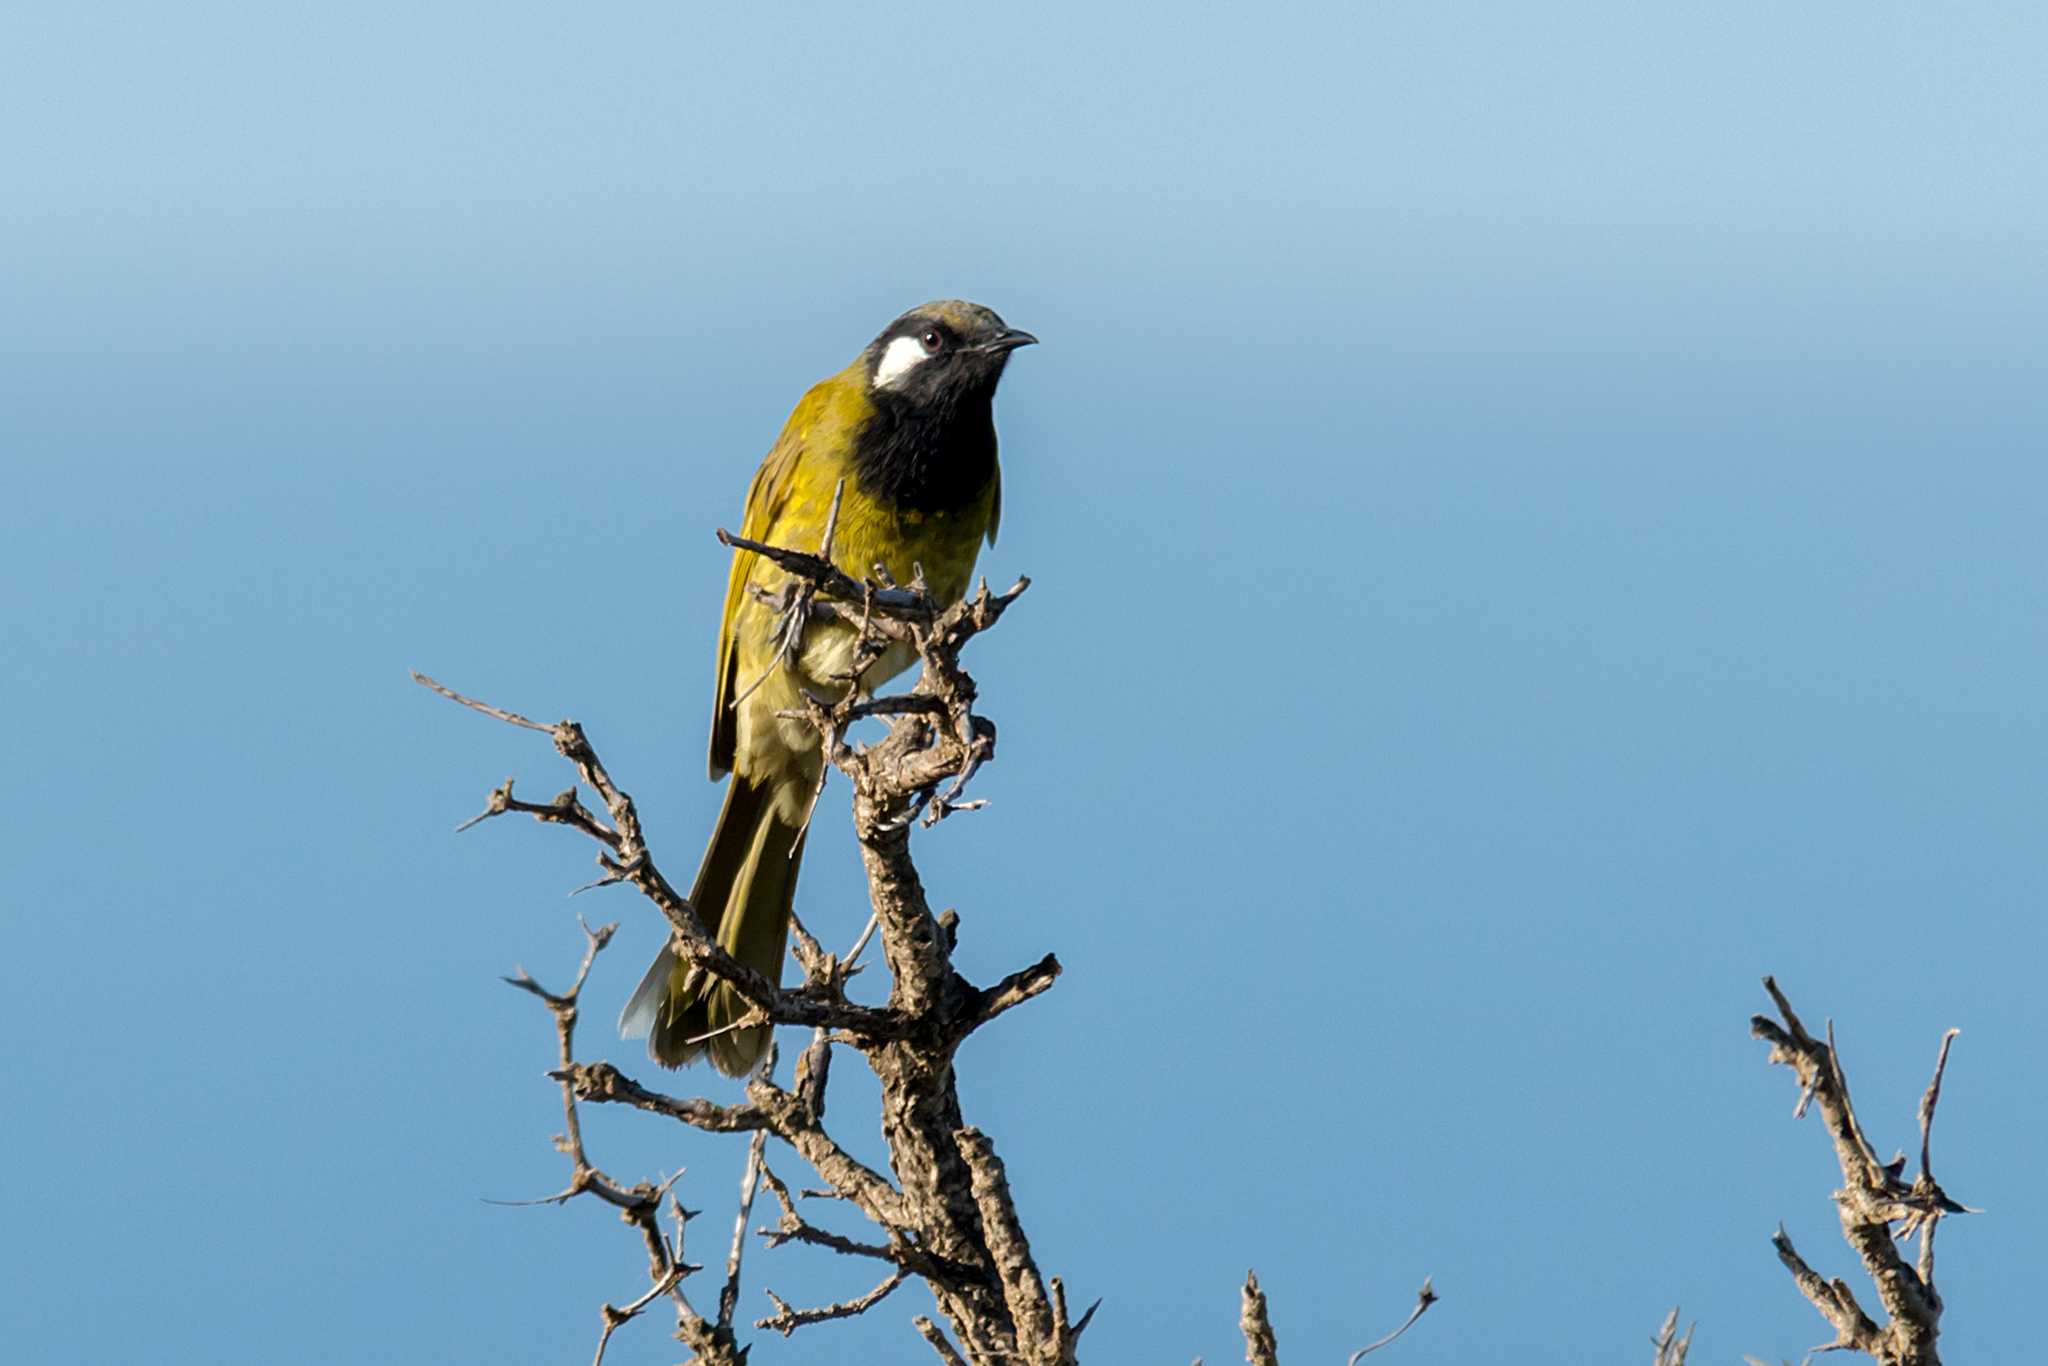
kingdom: Animalia
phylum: Chordata
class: Aves
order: Passeriformes
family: Meliphagidae
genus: Nesoptilotis
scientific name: Nesoptilotis leucotis
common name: White-eared honeyeater
